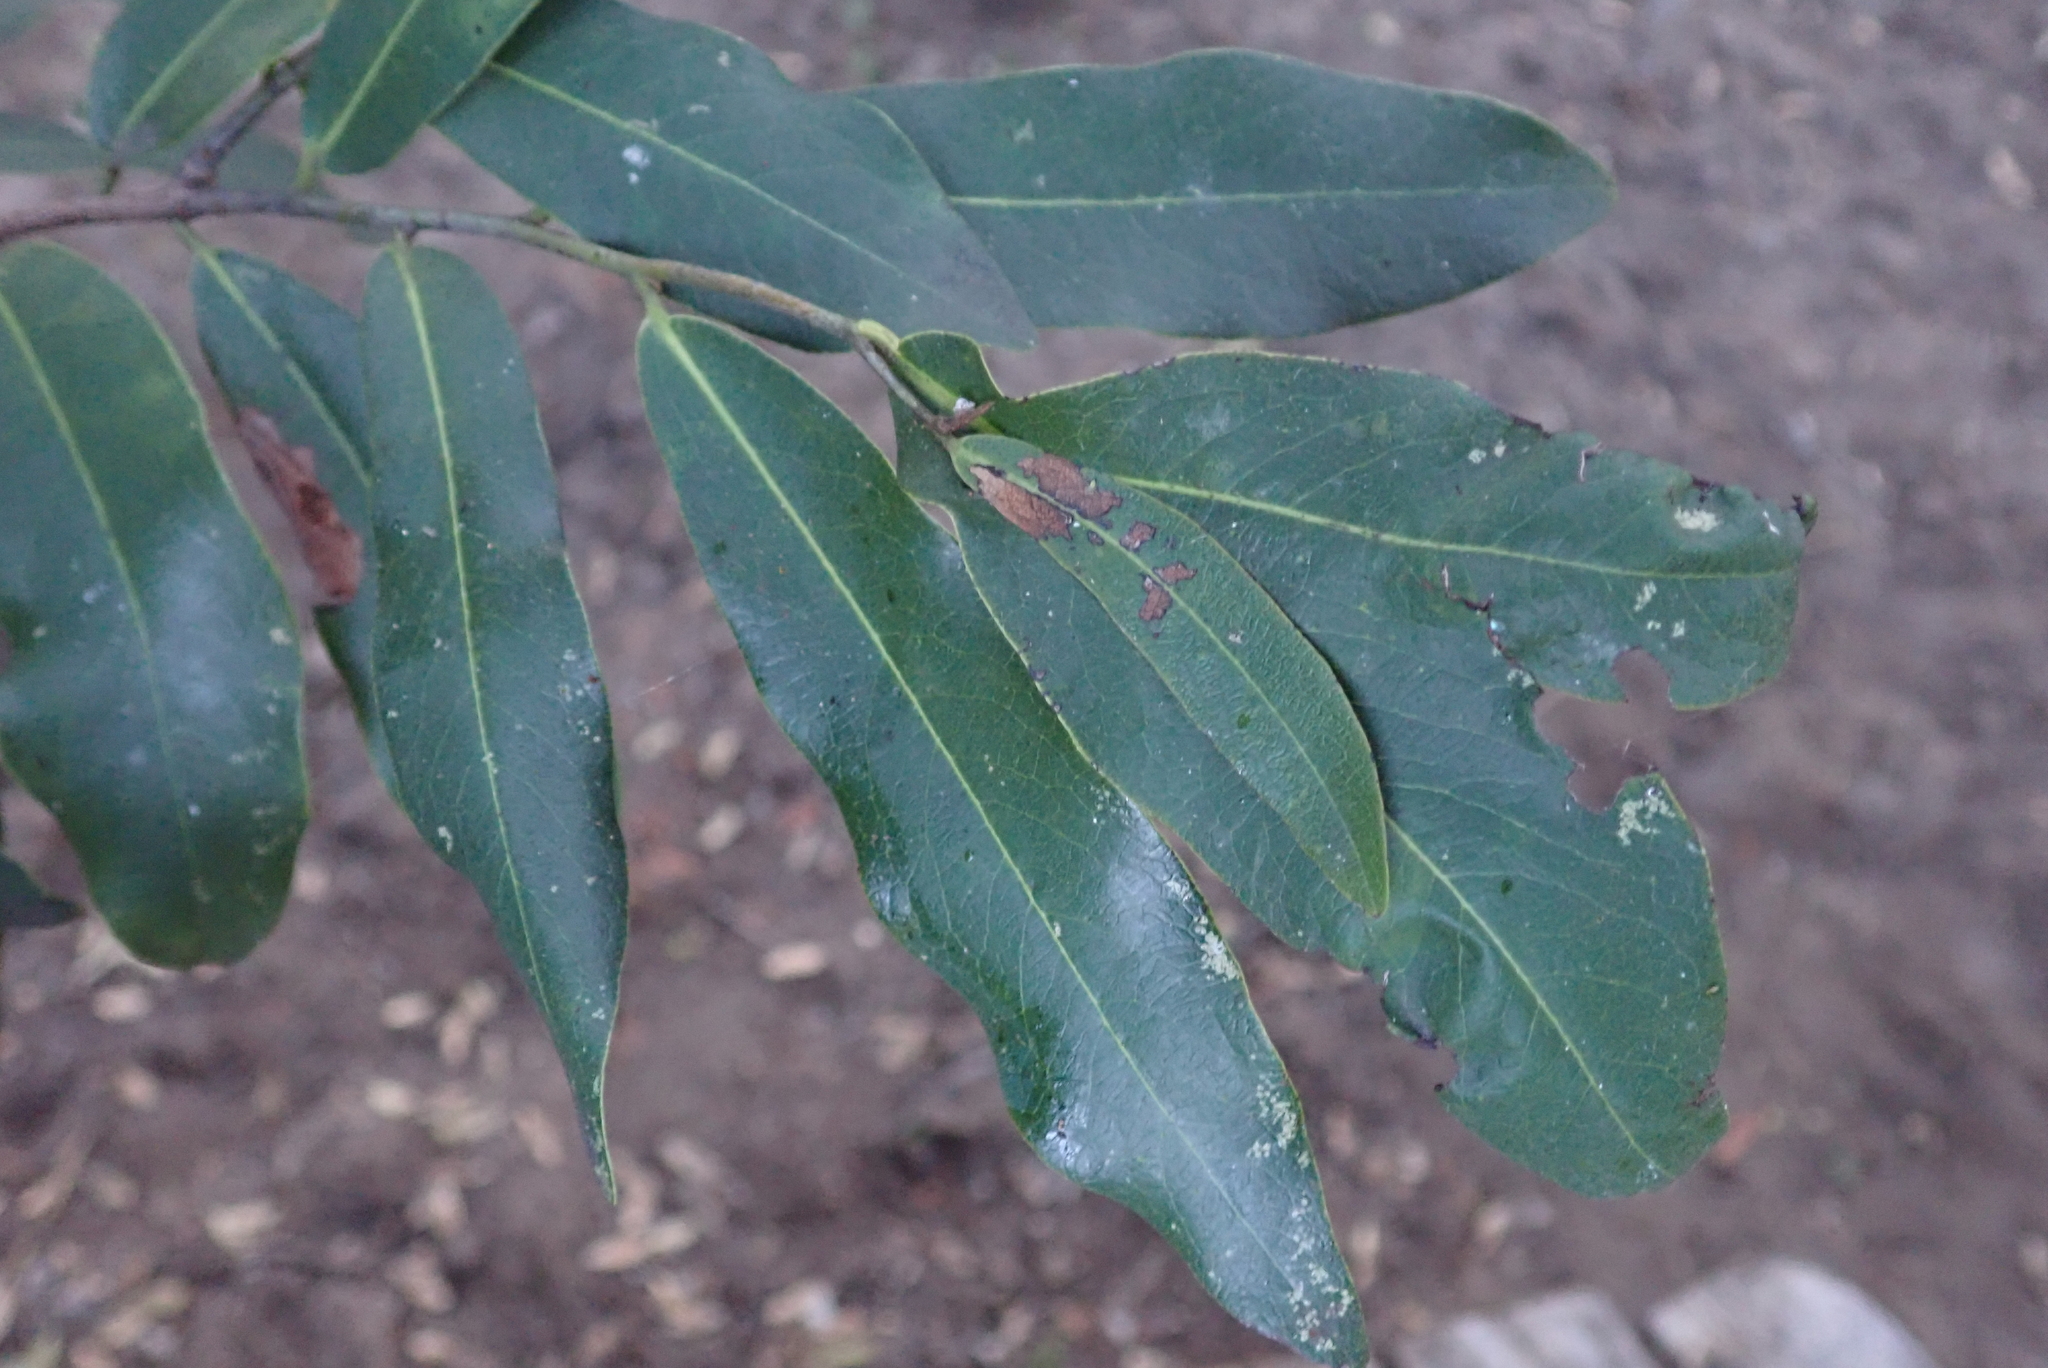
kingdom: Plantae
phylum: Tracheophyta
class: Magnoliopsida
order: Ericales
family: Ebenaceae
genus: Diospyros
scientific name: Diospyros mespiliformis
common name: Ebony diospyros
